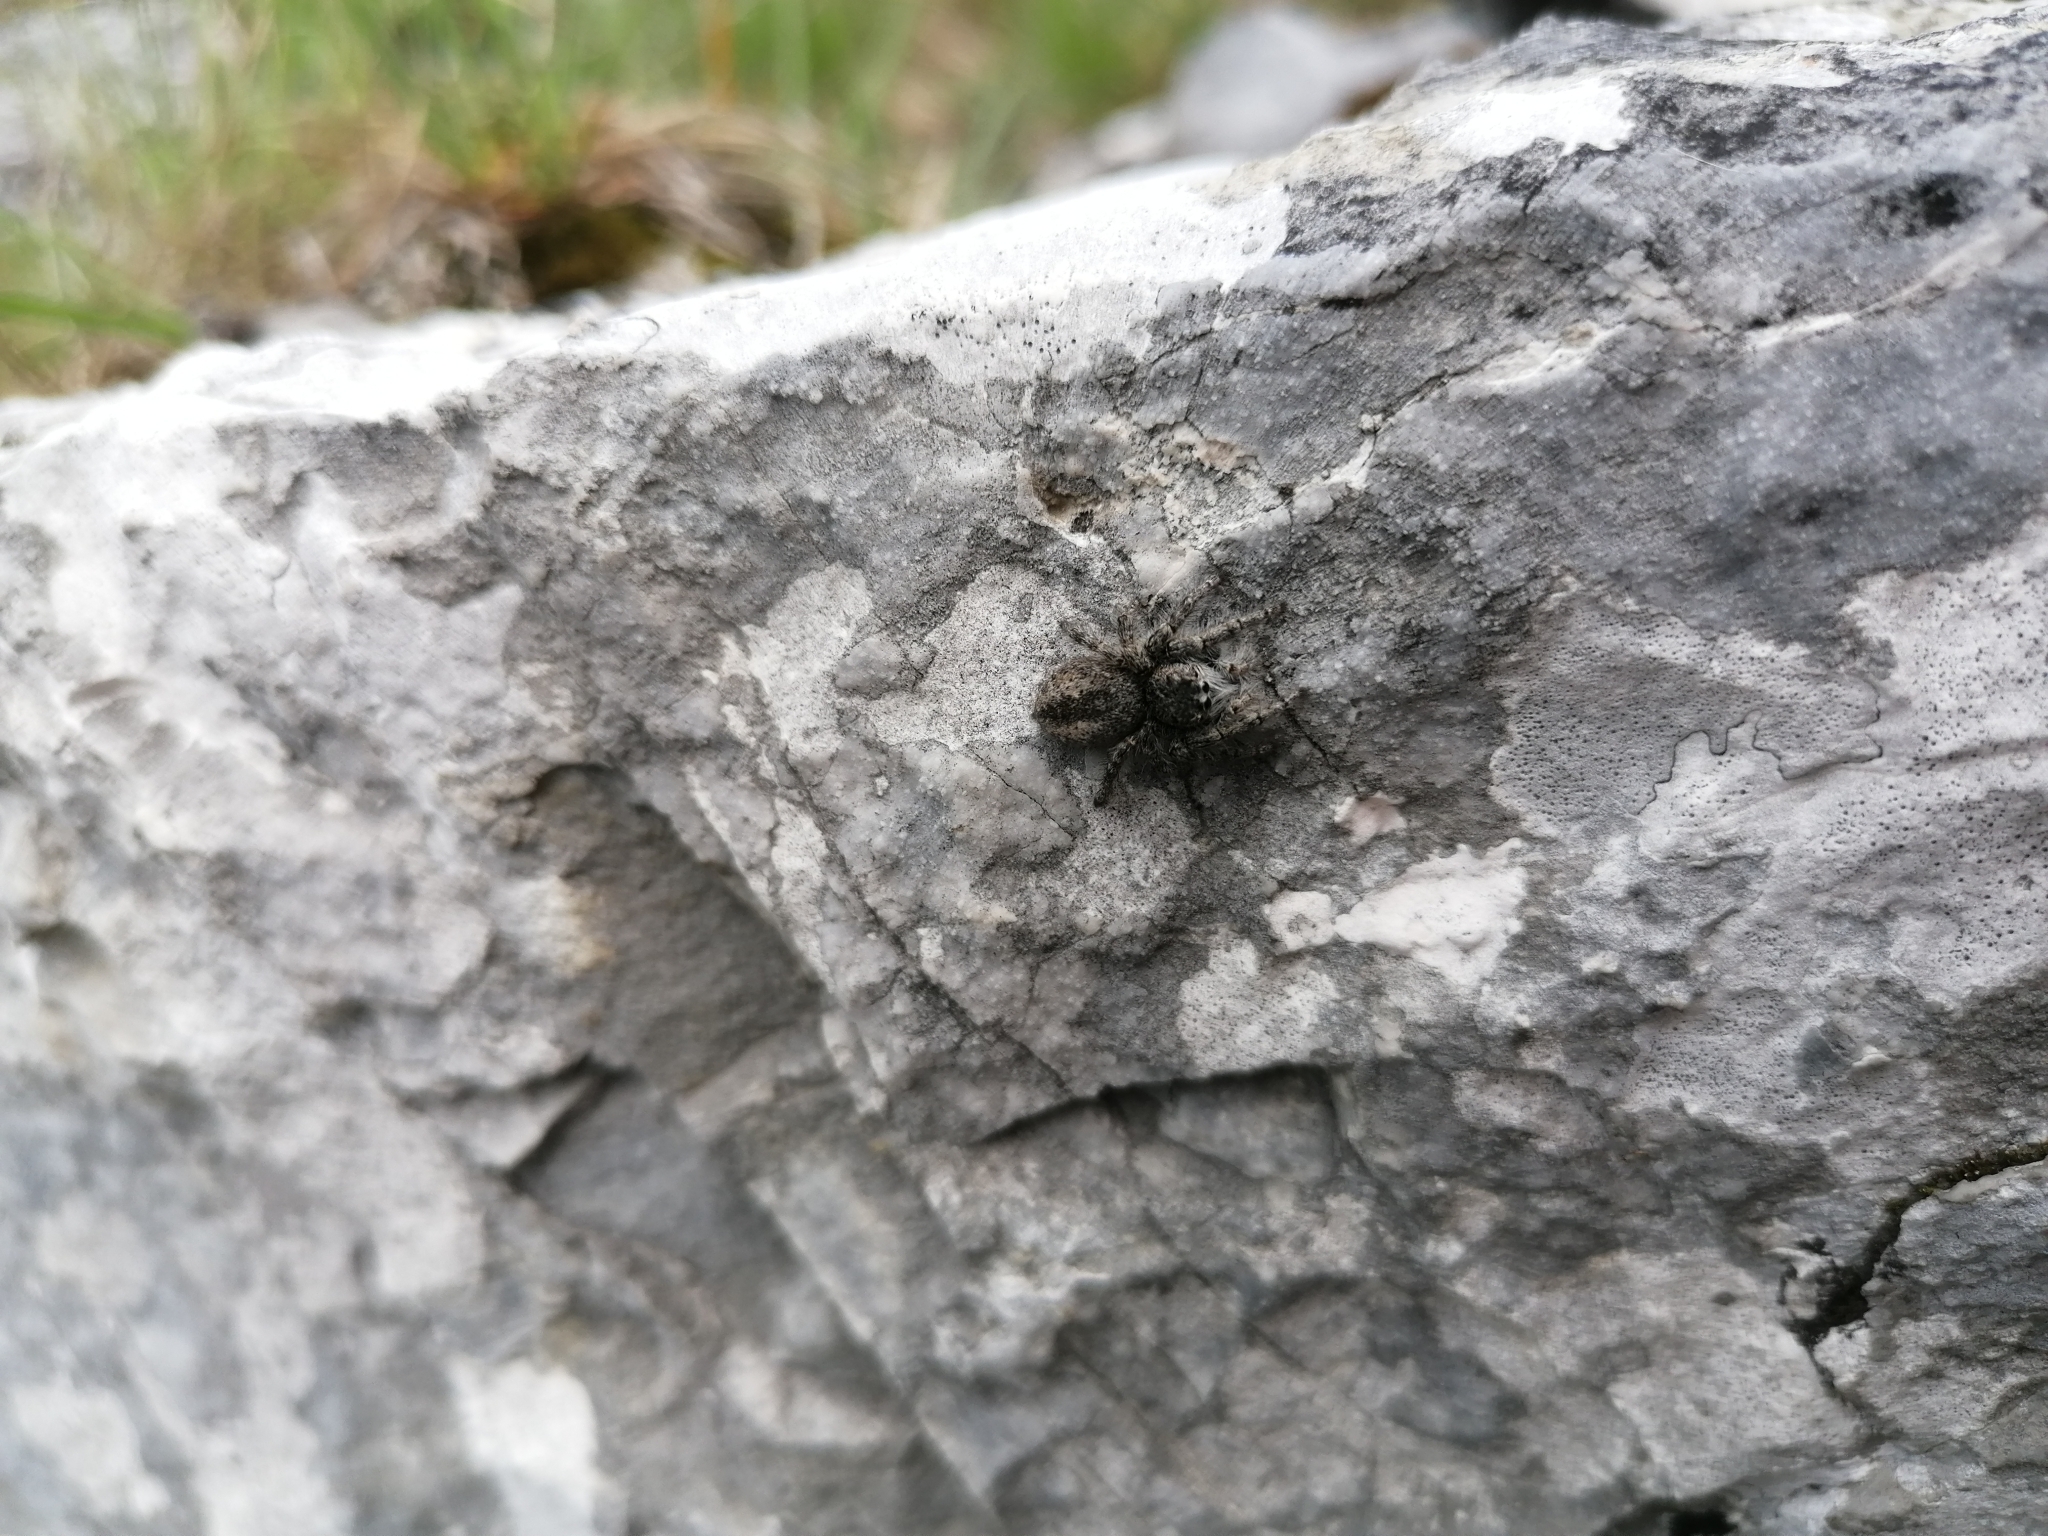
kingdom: Animalia
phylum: Arthropoda
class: Arachnida
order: Araneae
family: Salticidae
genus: Philaeus
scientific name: Philaeus chrysops
